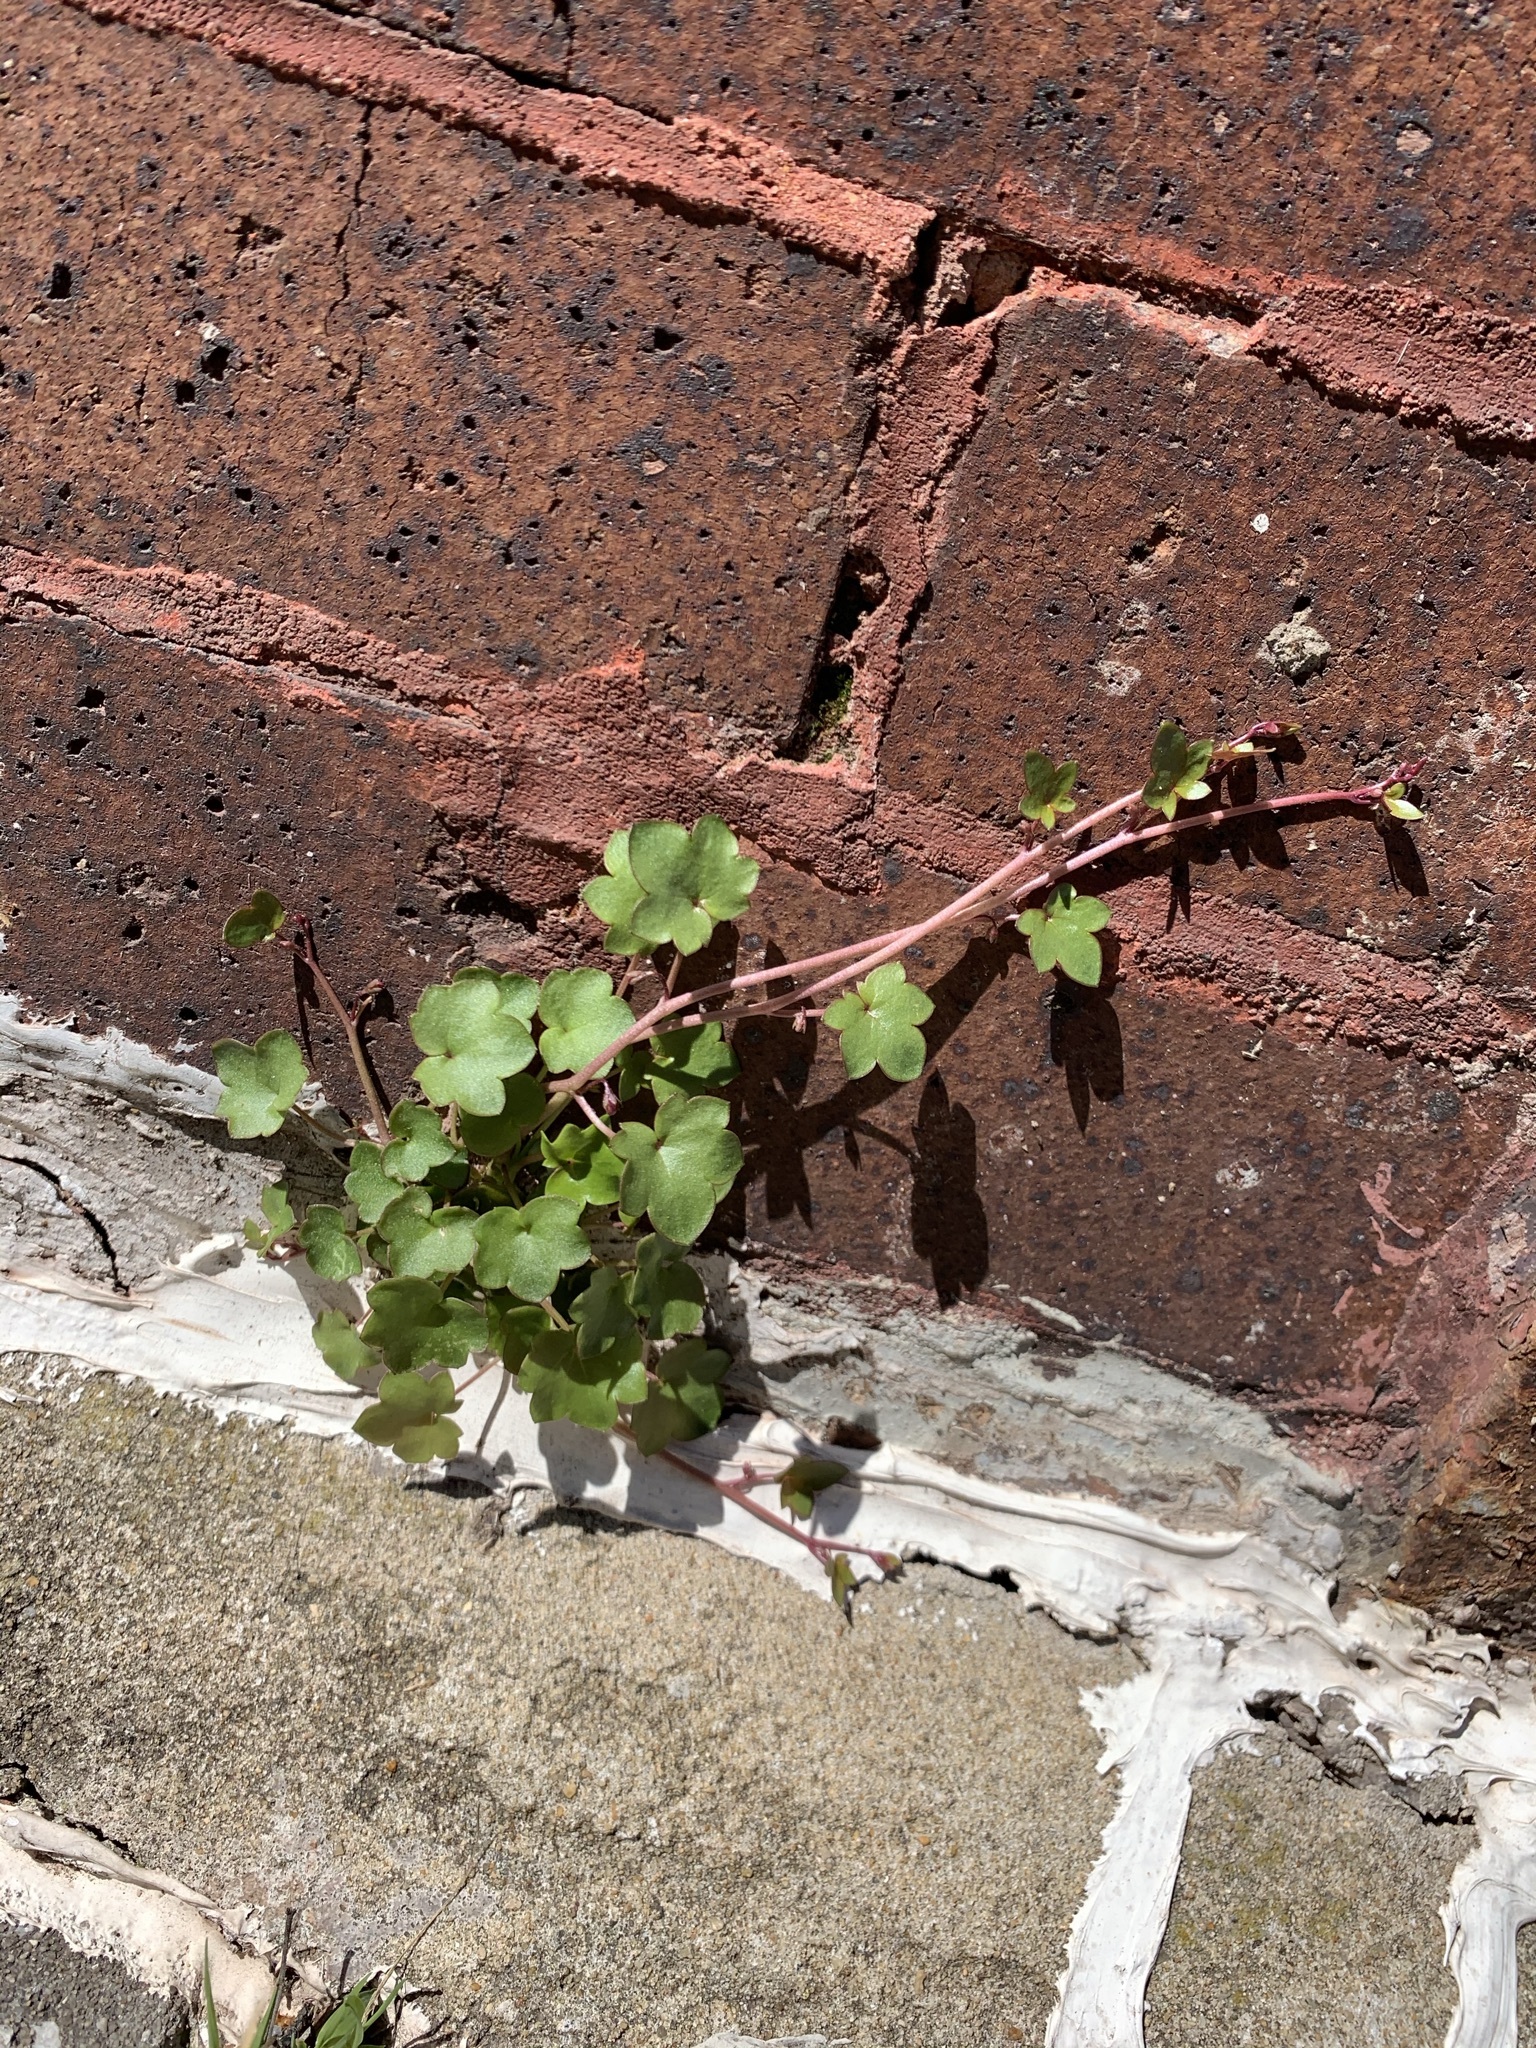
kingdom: Plantae
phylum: Tracheophyta
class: Magnoliopsida
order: Lamiales
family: Plantaginaceae
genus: Cymbalaria
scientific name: Cymbalaria muralis
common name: Ivy-leaved toadflax
